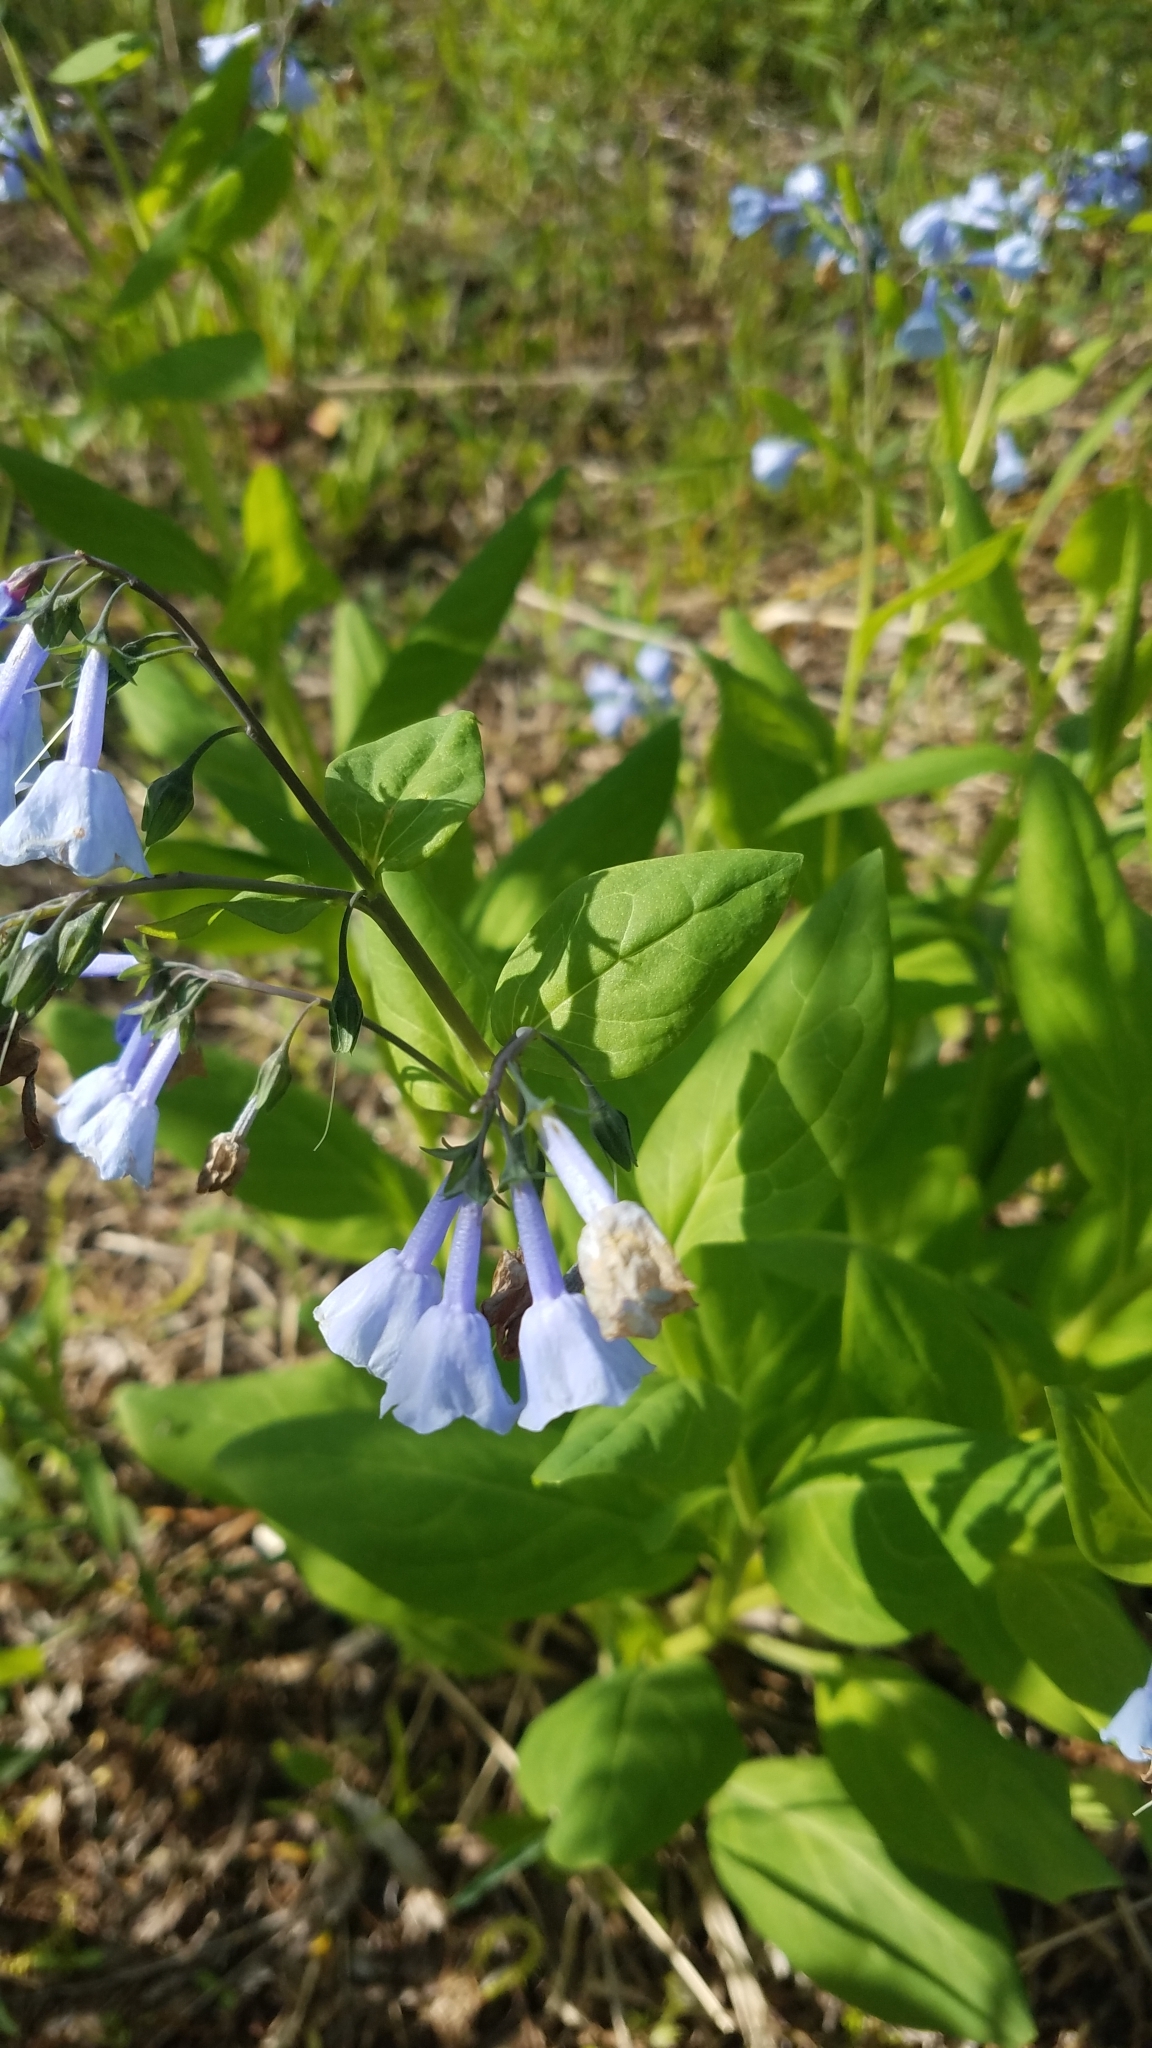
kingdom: Plantae
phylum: Tracheophyta
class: Magnoliopsida
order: Boraginales
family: Boraginaceae
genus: Mertensia
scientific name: Mertensia virginica
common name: Virginia bluebells
